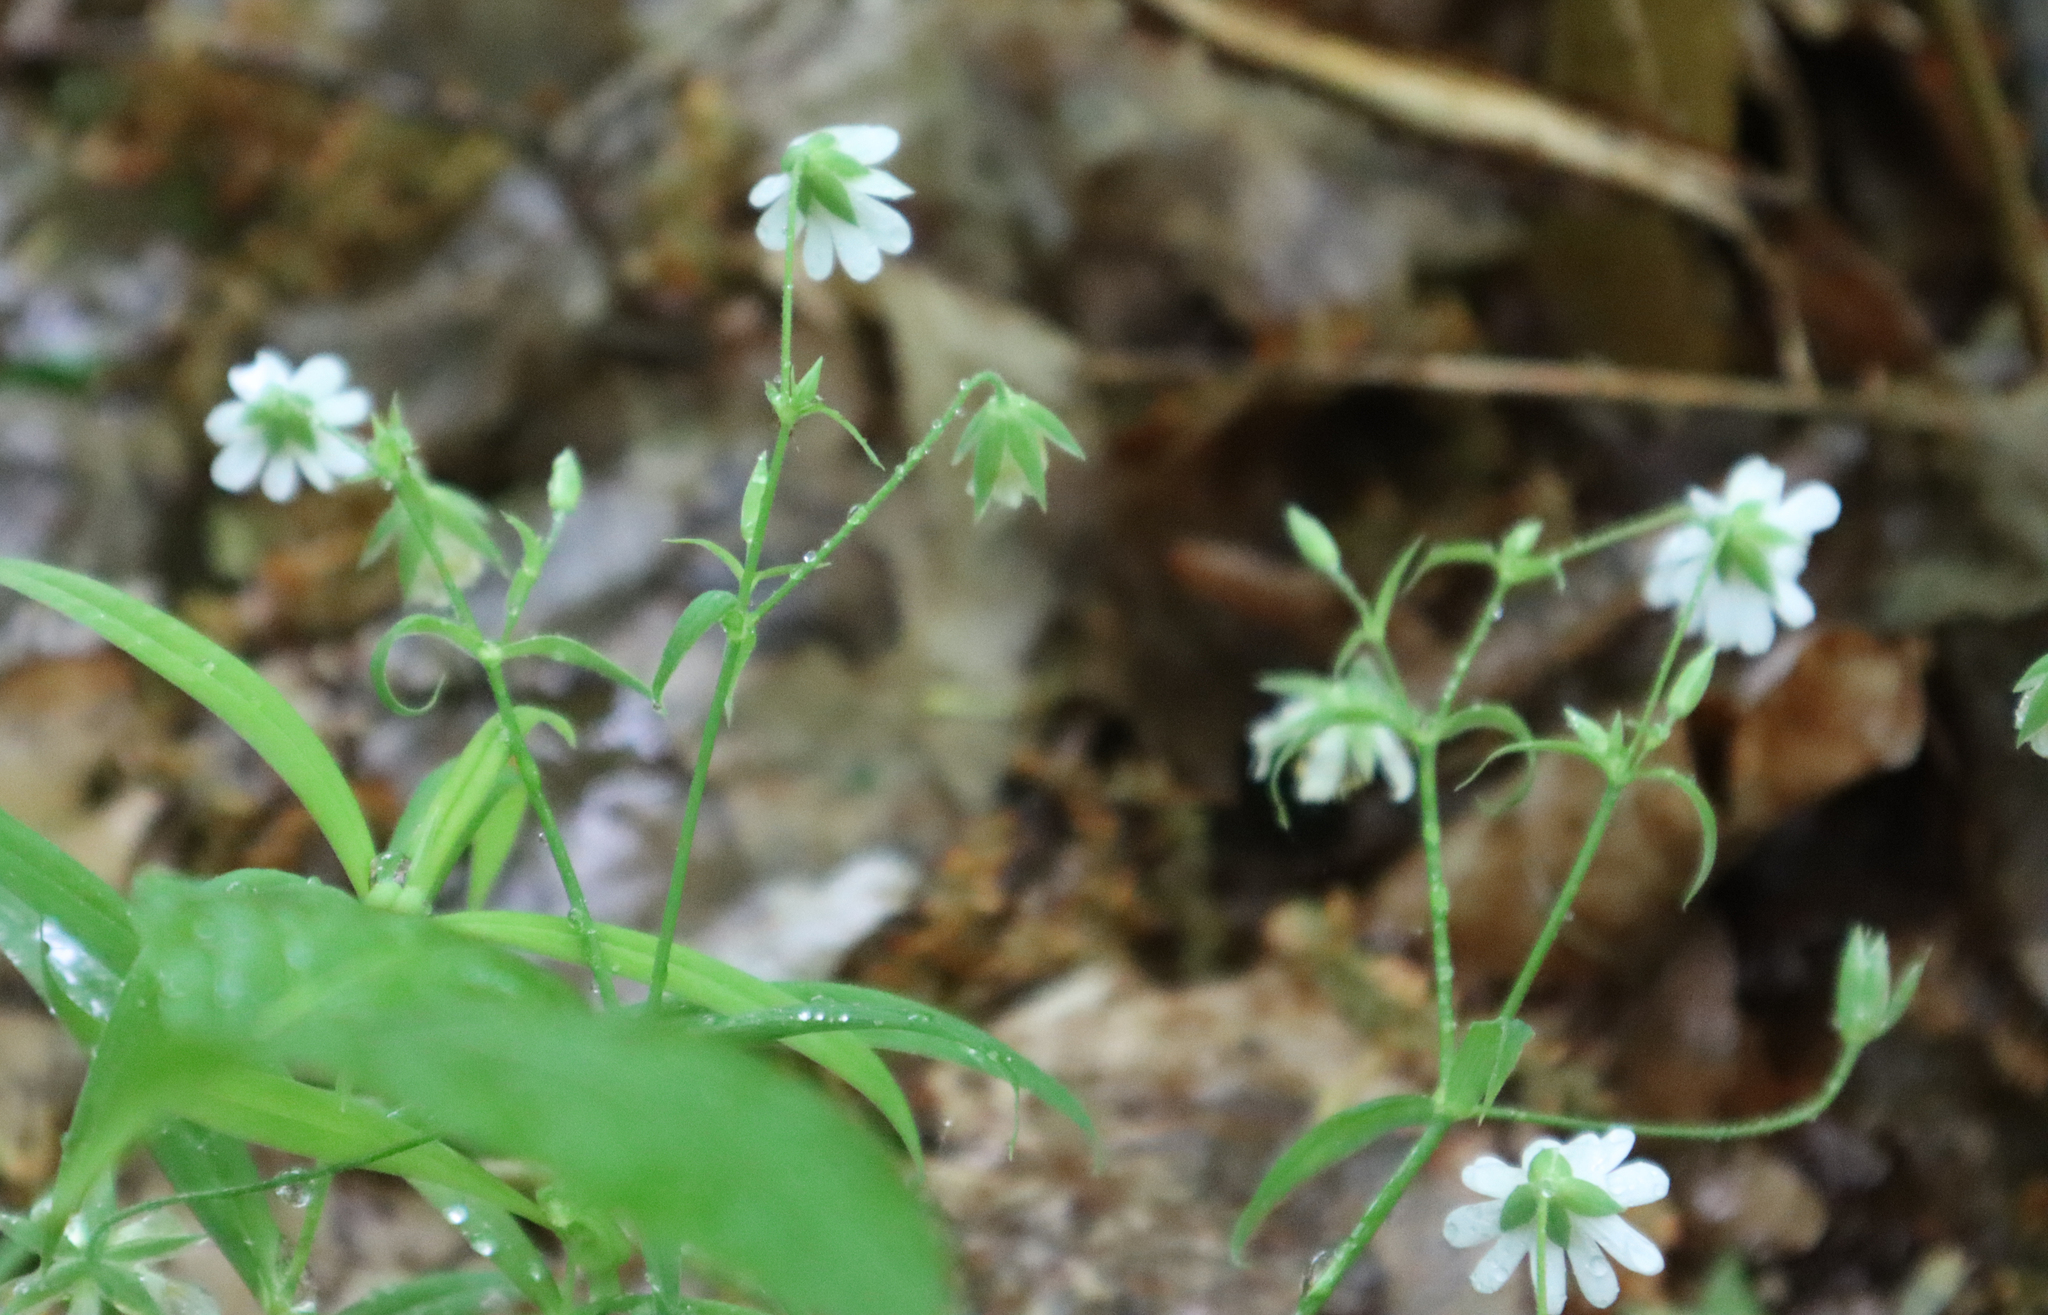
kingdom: Plantae
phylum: Tracheophyta
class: Magnoliopsida
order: Caryophyllales
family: Caryophyllaceae
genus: Rabelera
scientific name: Rabelera holostea
